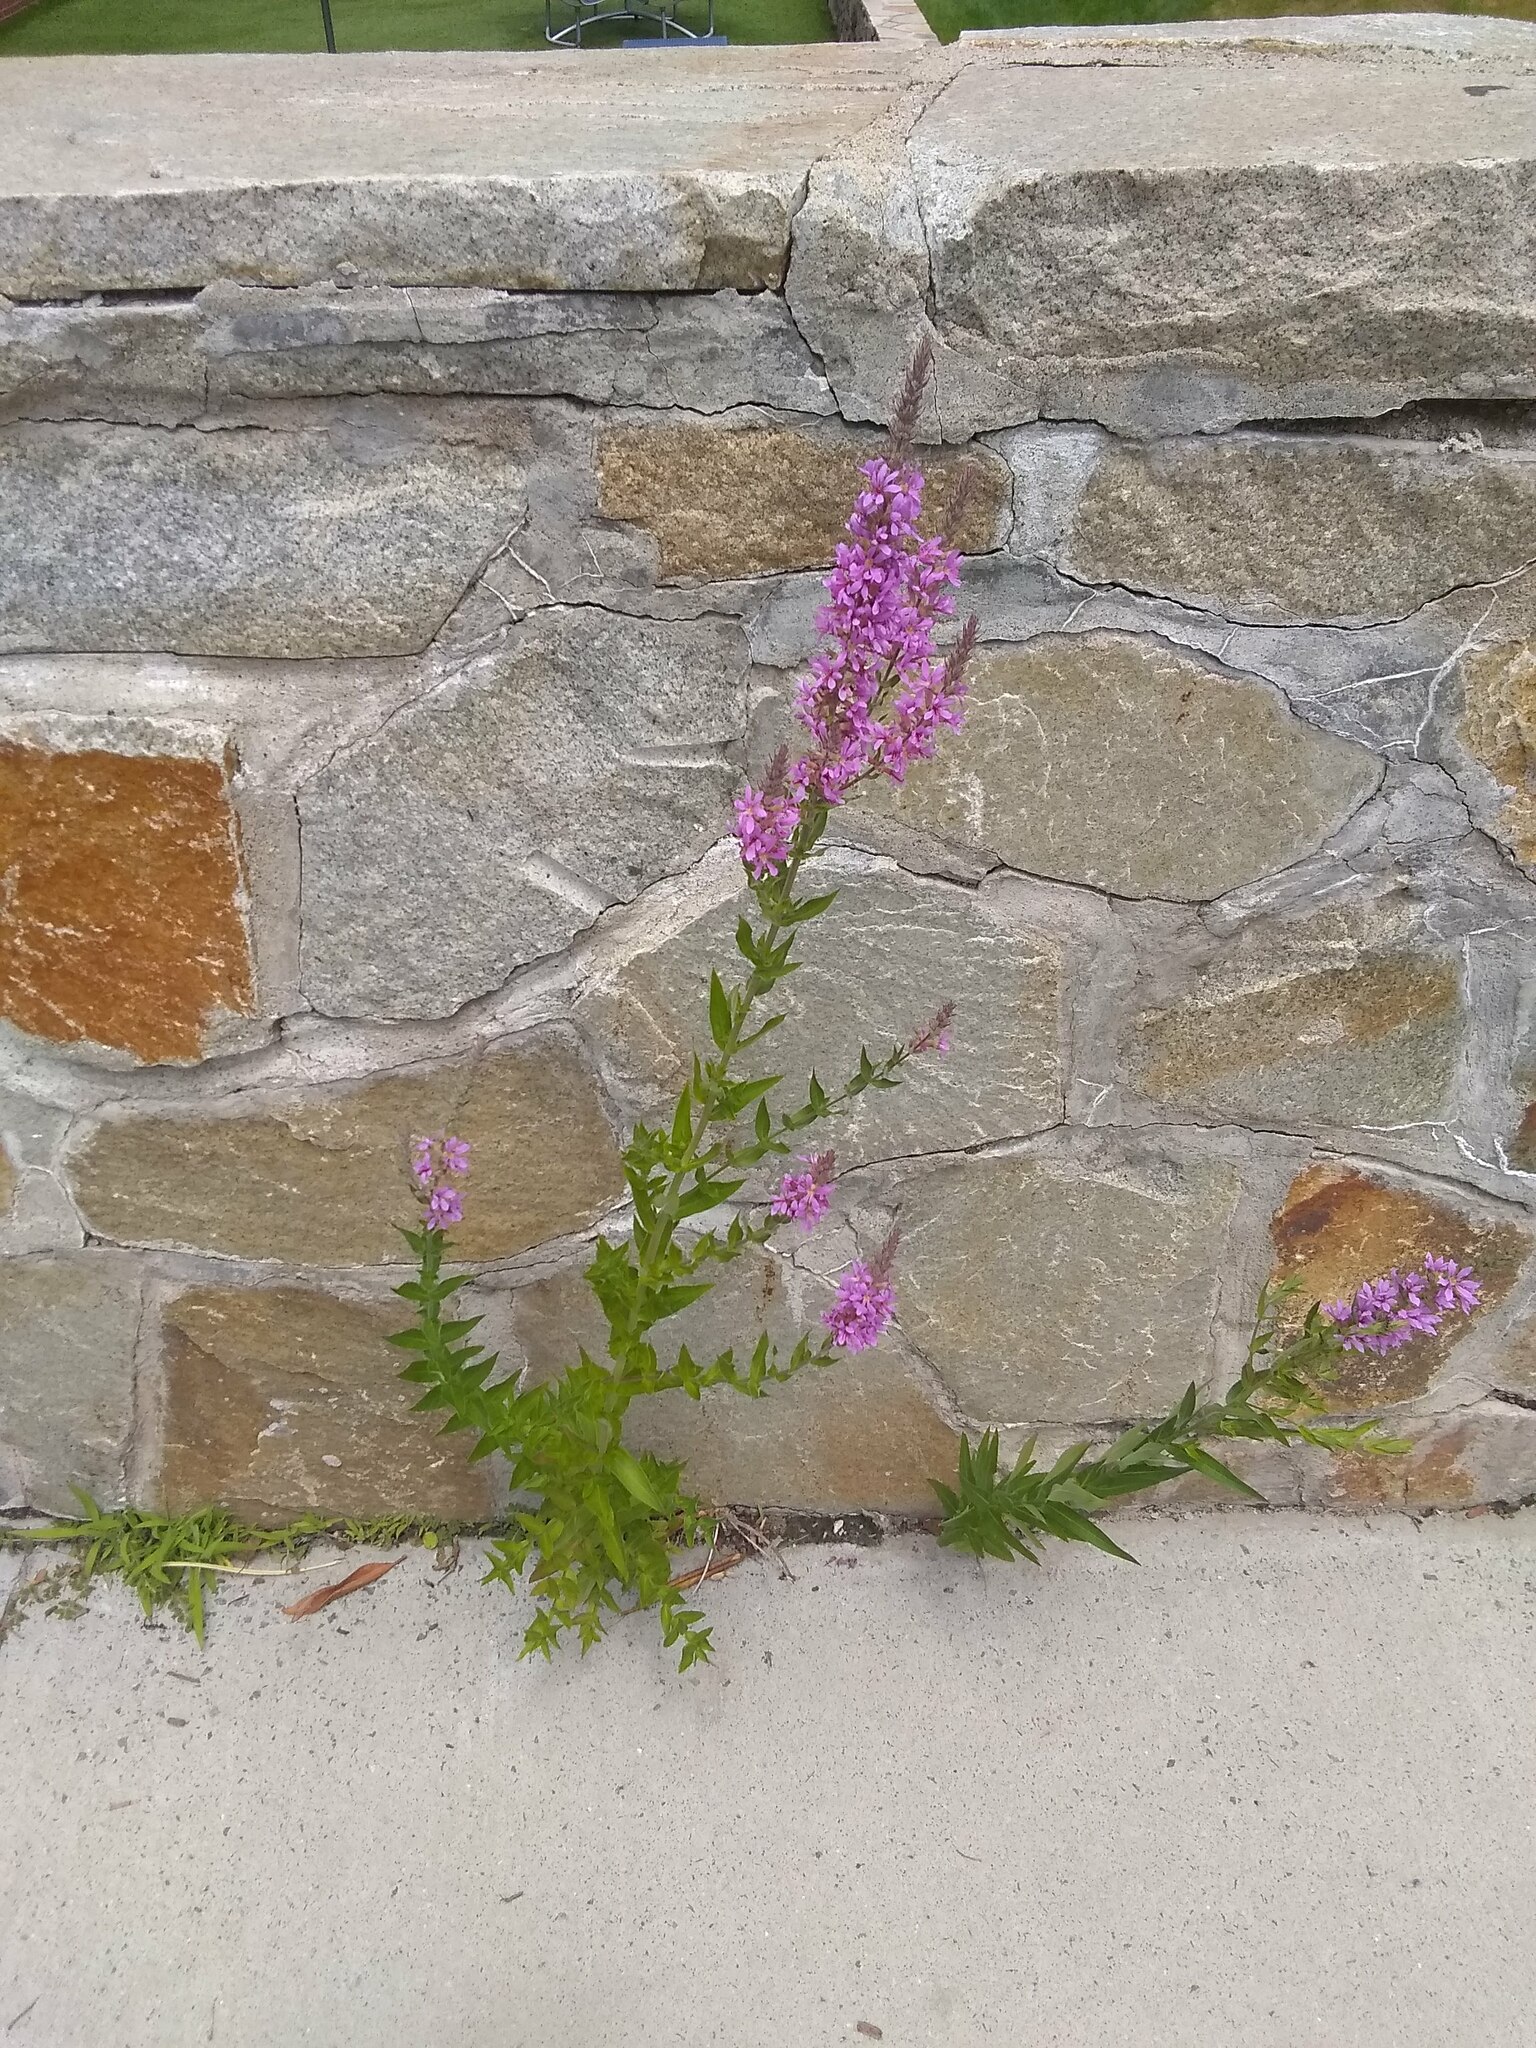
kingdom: Plantae
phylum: Tracheophyta
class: Magnoliopsida
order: Myrtales
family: Lythraceae
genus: Lythrum
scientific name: Lythrum salicaria
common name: Purple loosestrife
